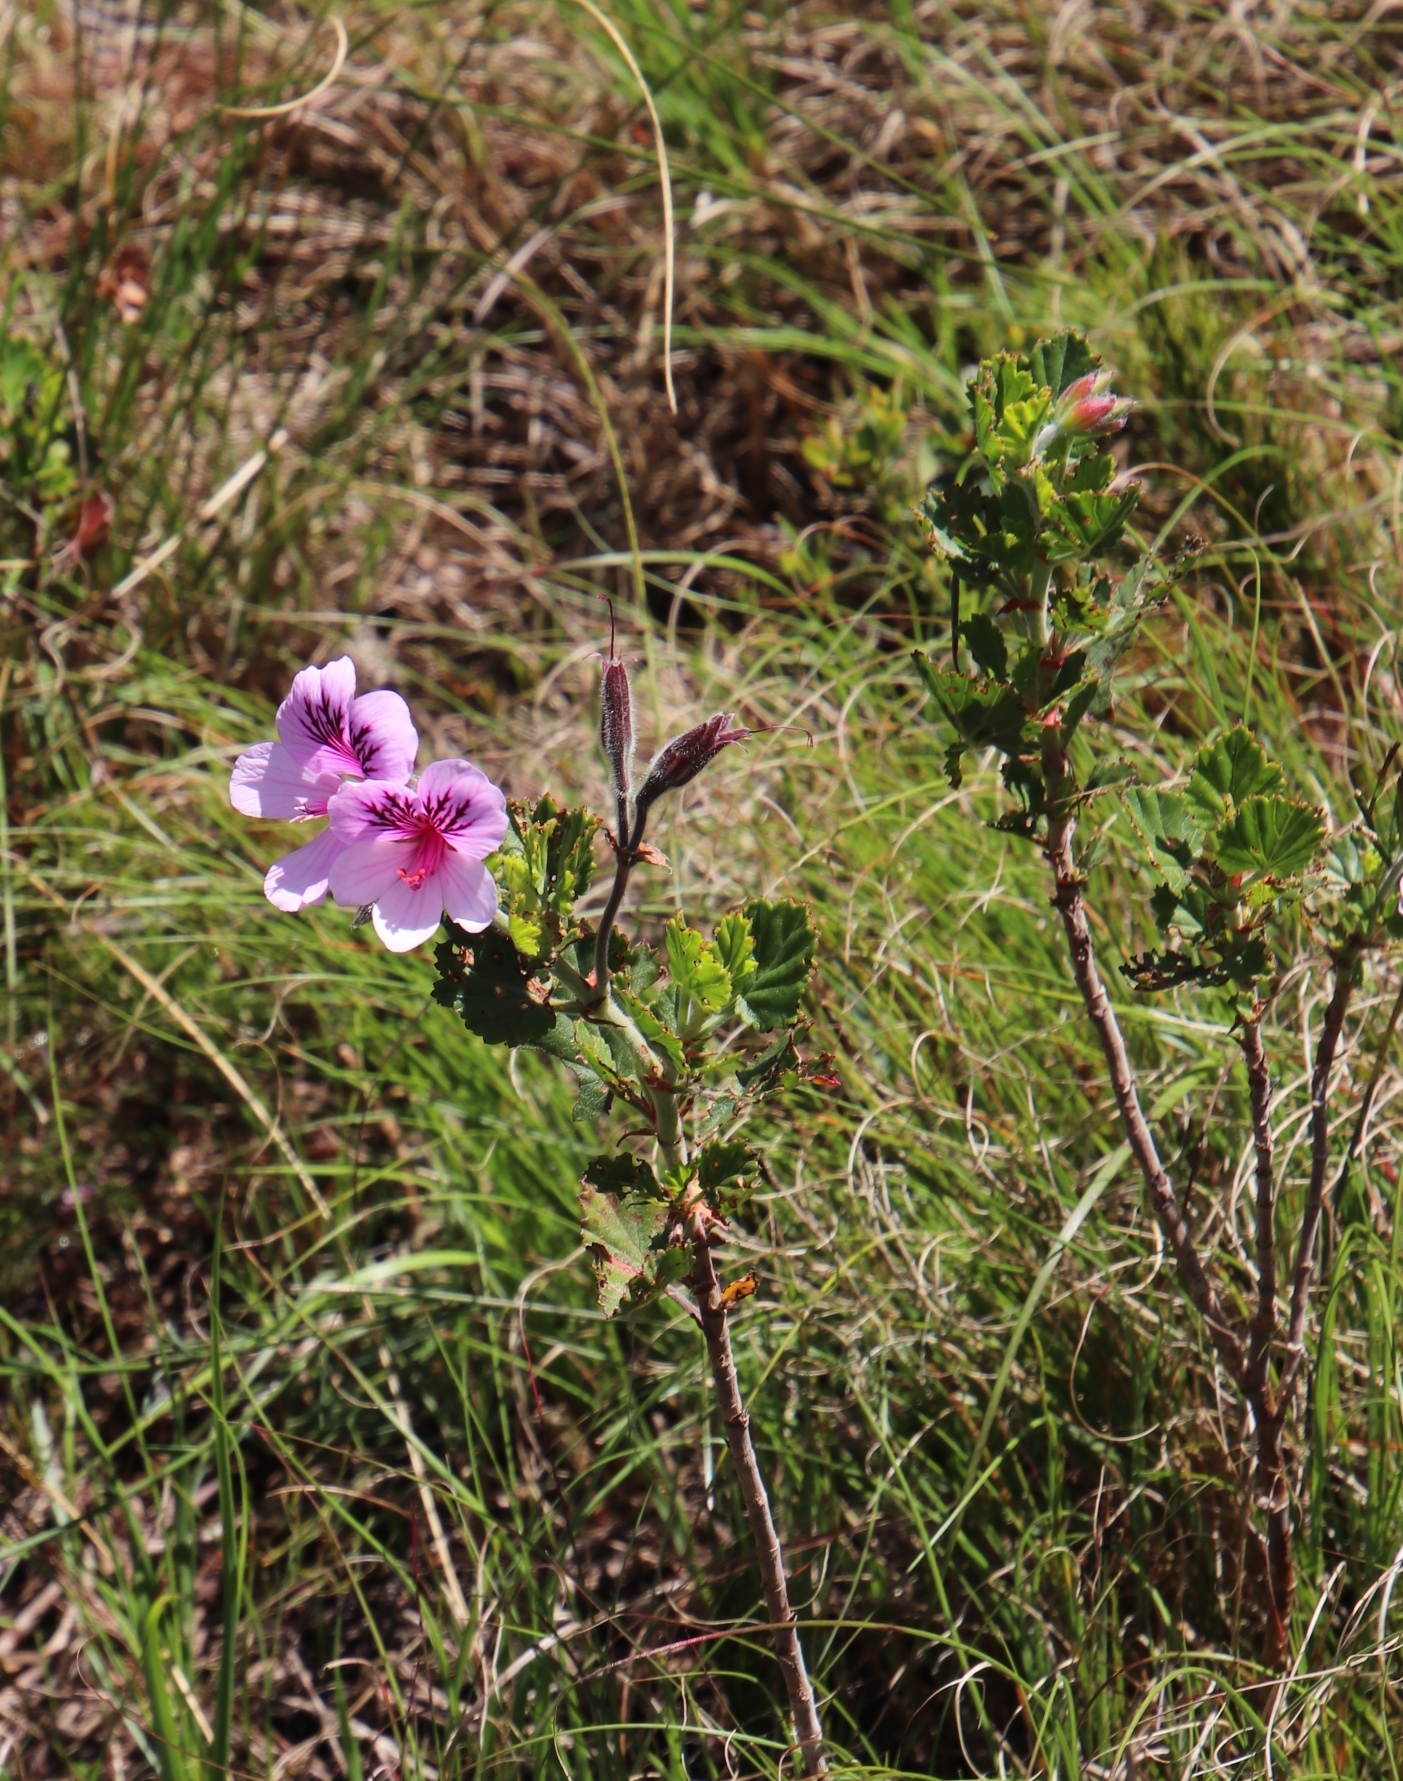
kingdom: Plantae
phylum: Tracheophyta
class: Magnoliopsida
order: Geraniales
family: Geraniaceae
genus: Pelargonium
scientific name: Pelargonium betulinum
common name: Birch-leaf pelargonium
